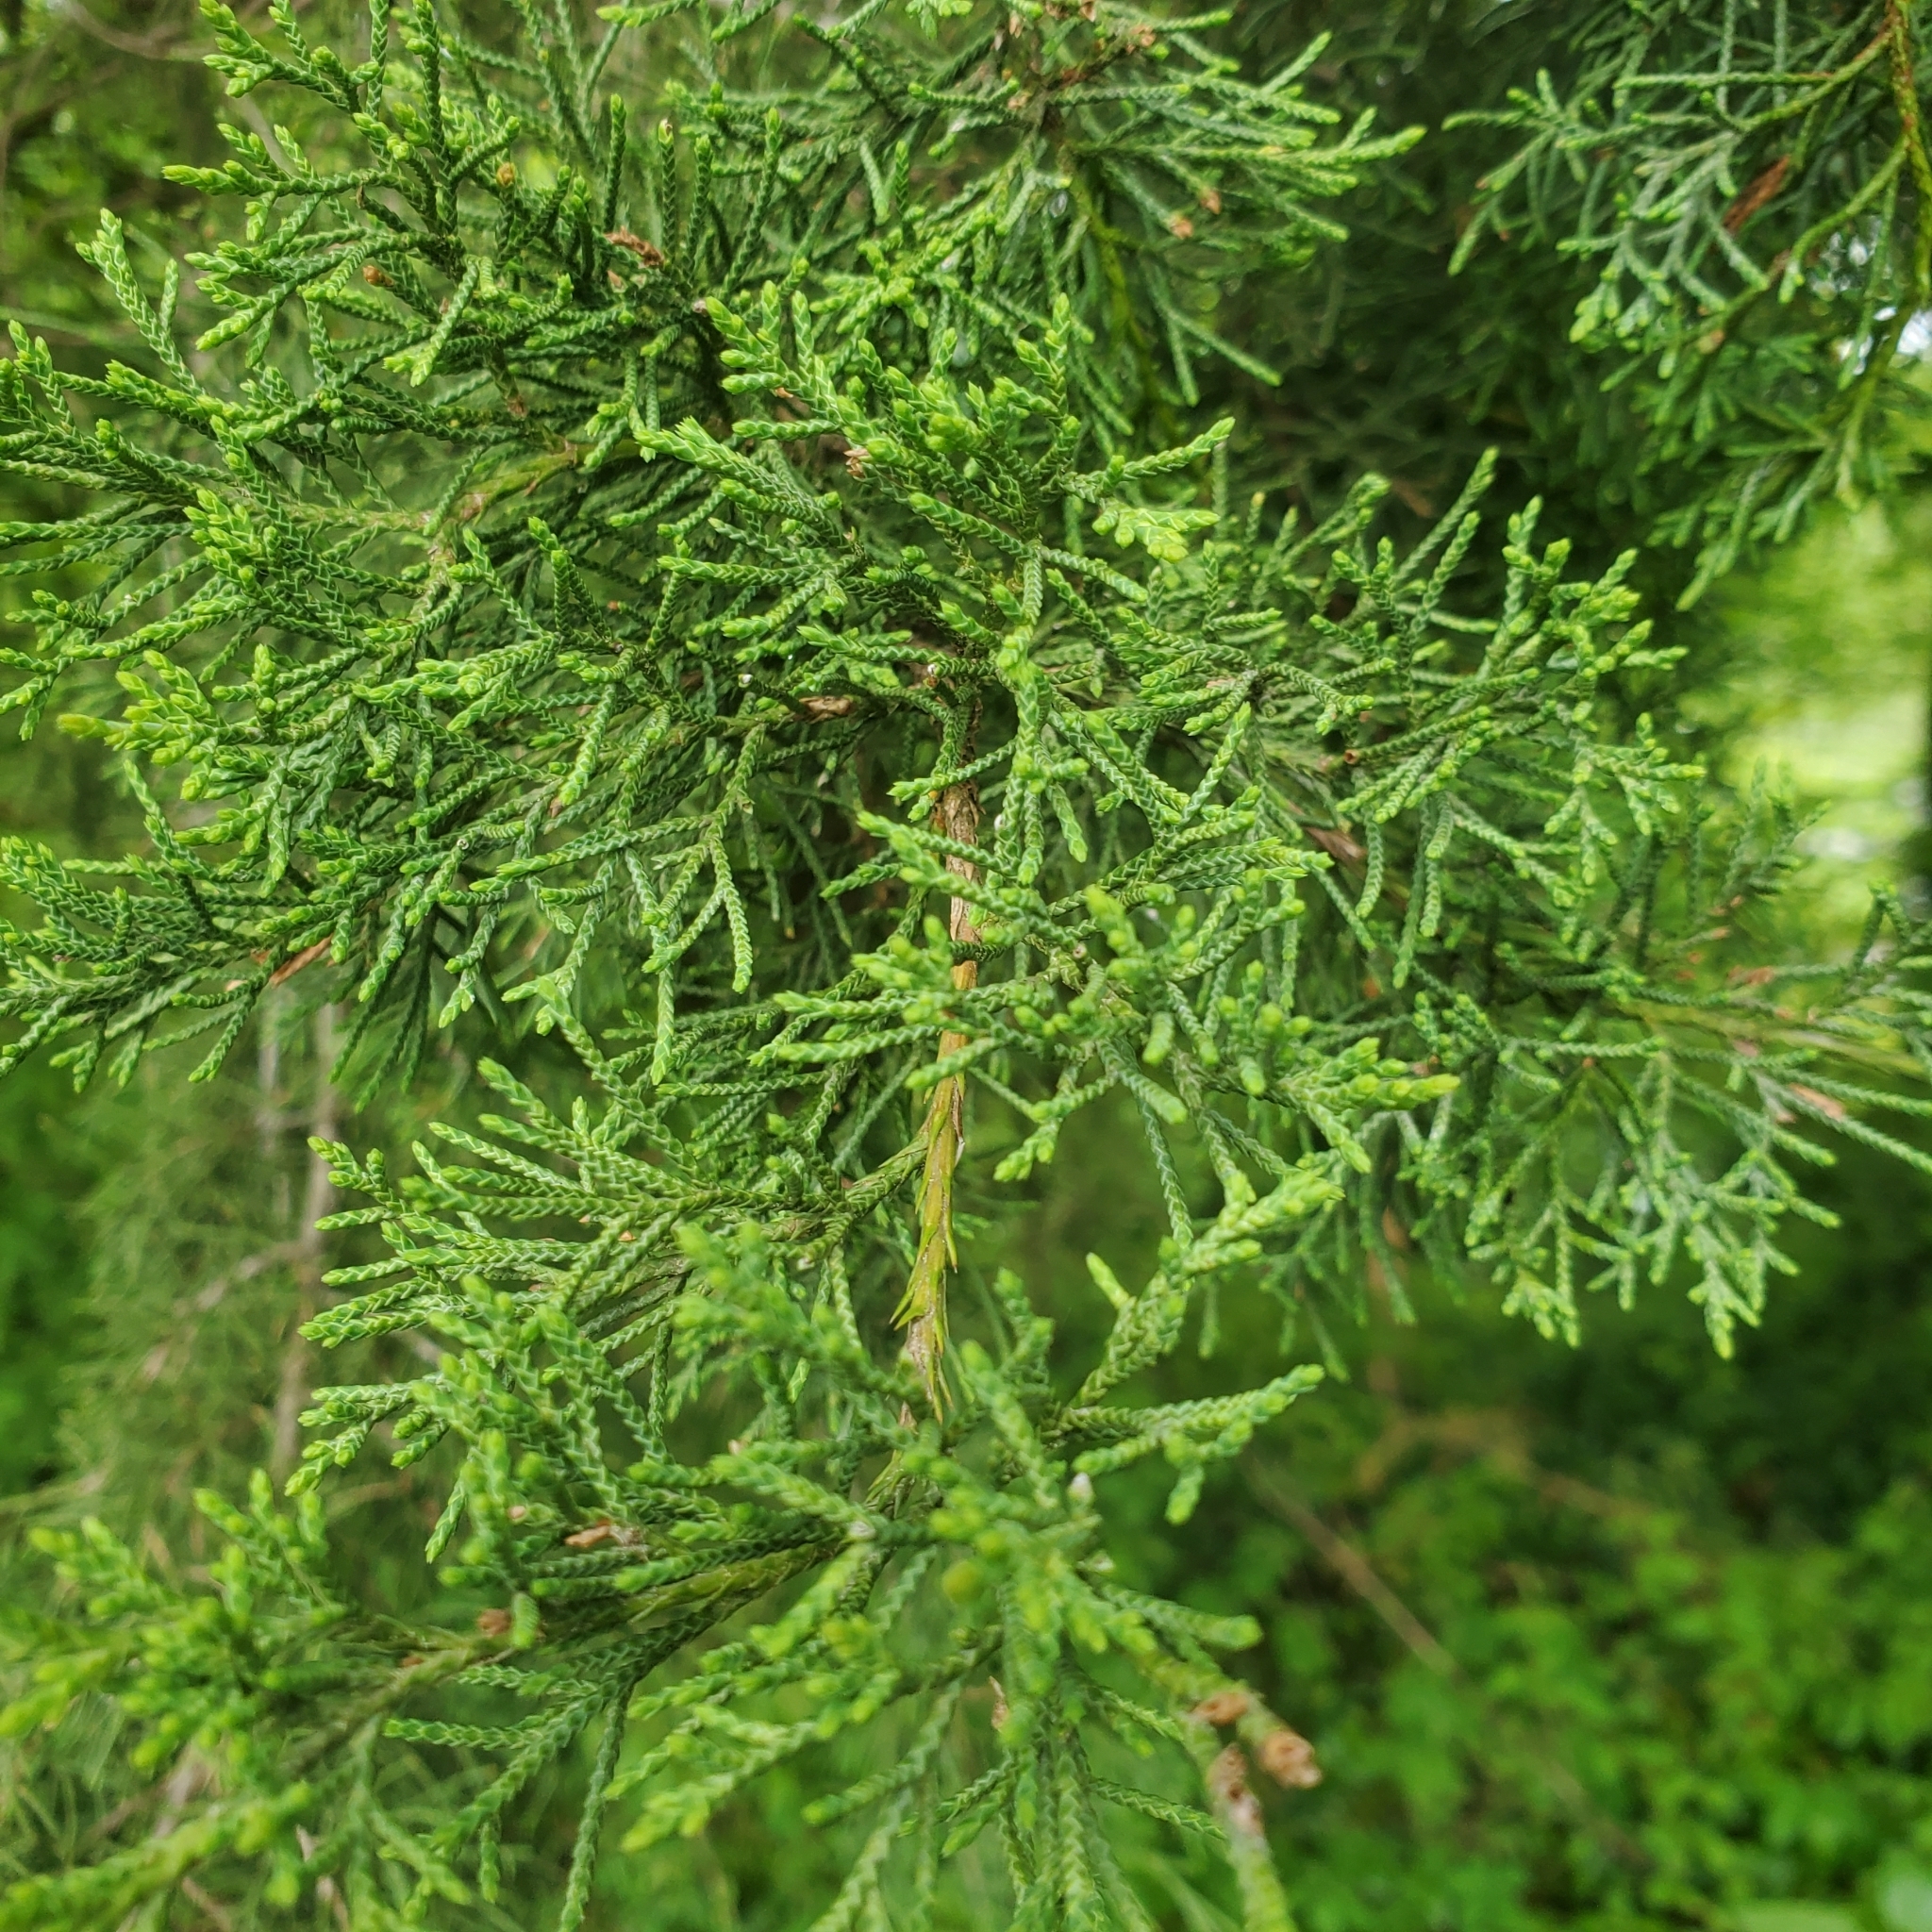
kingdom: Plantae
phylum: Tracheophyta
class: Pinopsida
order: Pinales
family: Cupressaceae
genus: Juniperus
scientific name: Juniperus virginiana
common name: Red juniper
